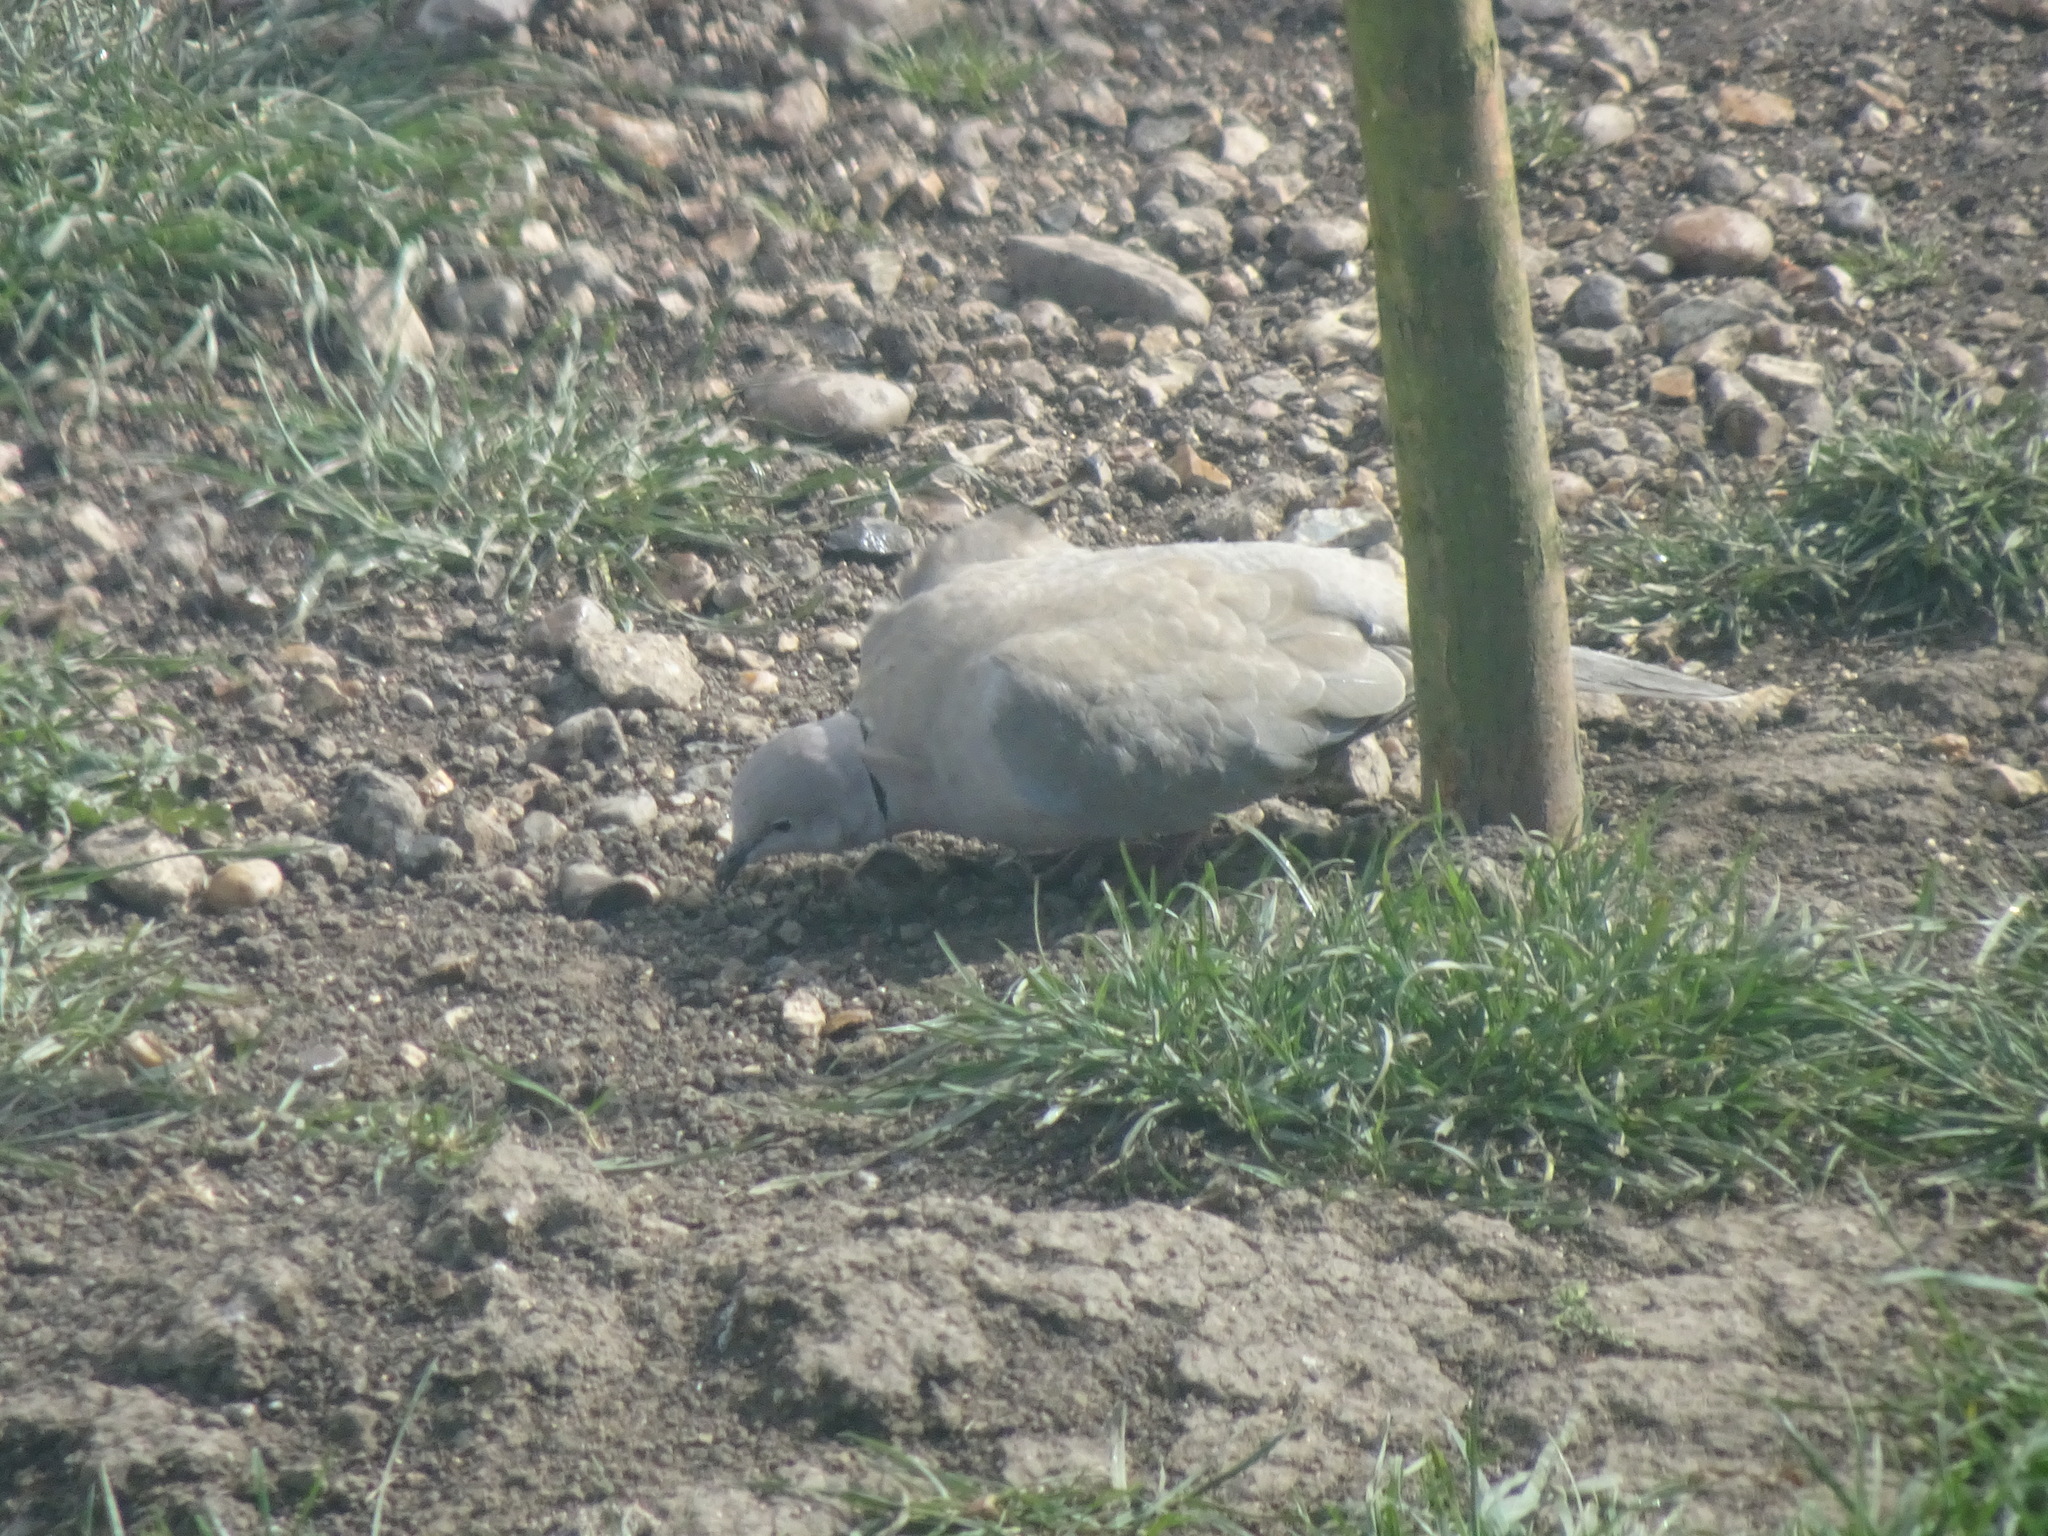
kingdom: Animalia
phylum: Chordata
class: Aves
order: Columbiformes
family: Columbidae
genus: Streptopelia
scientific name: Streptopelia decaocto
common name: Eurasian collared dove
